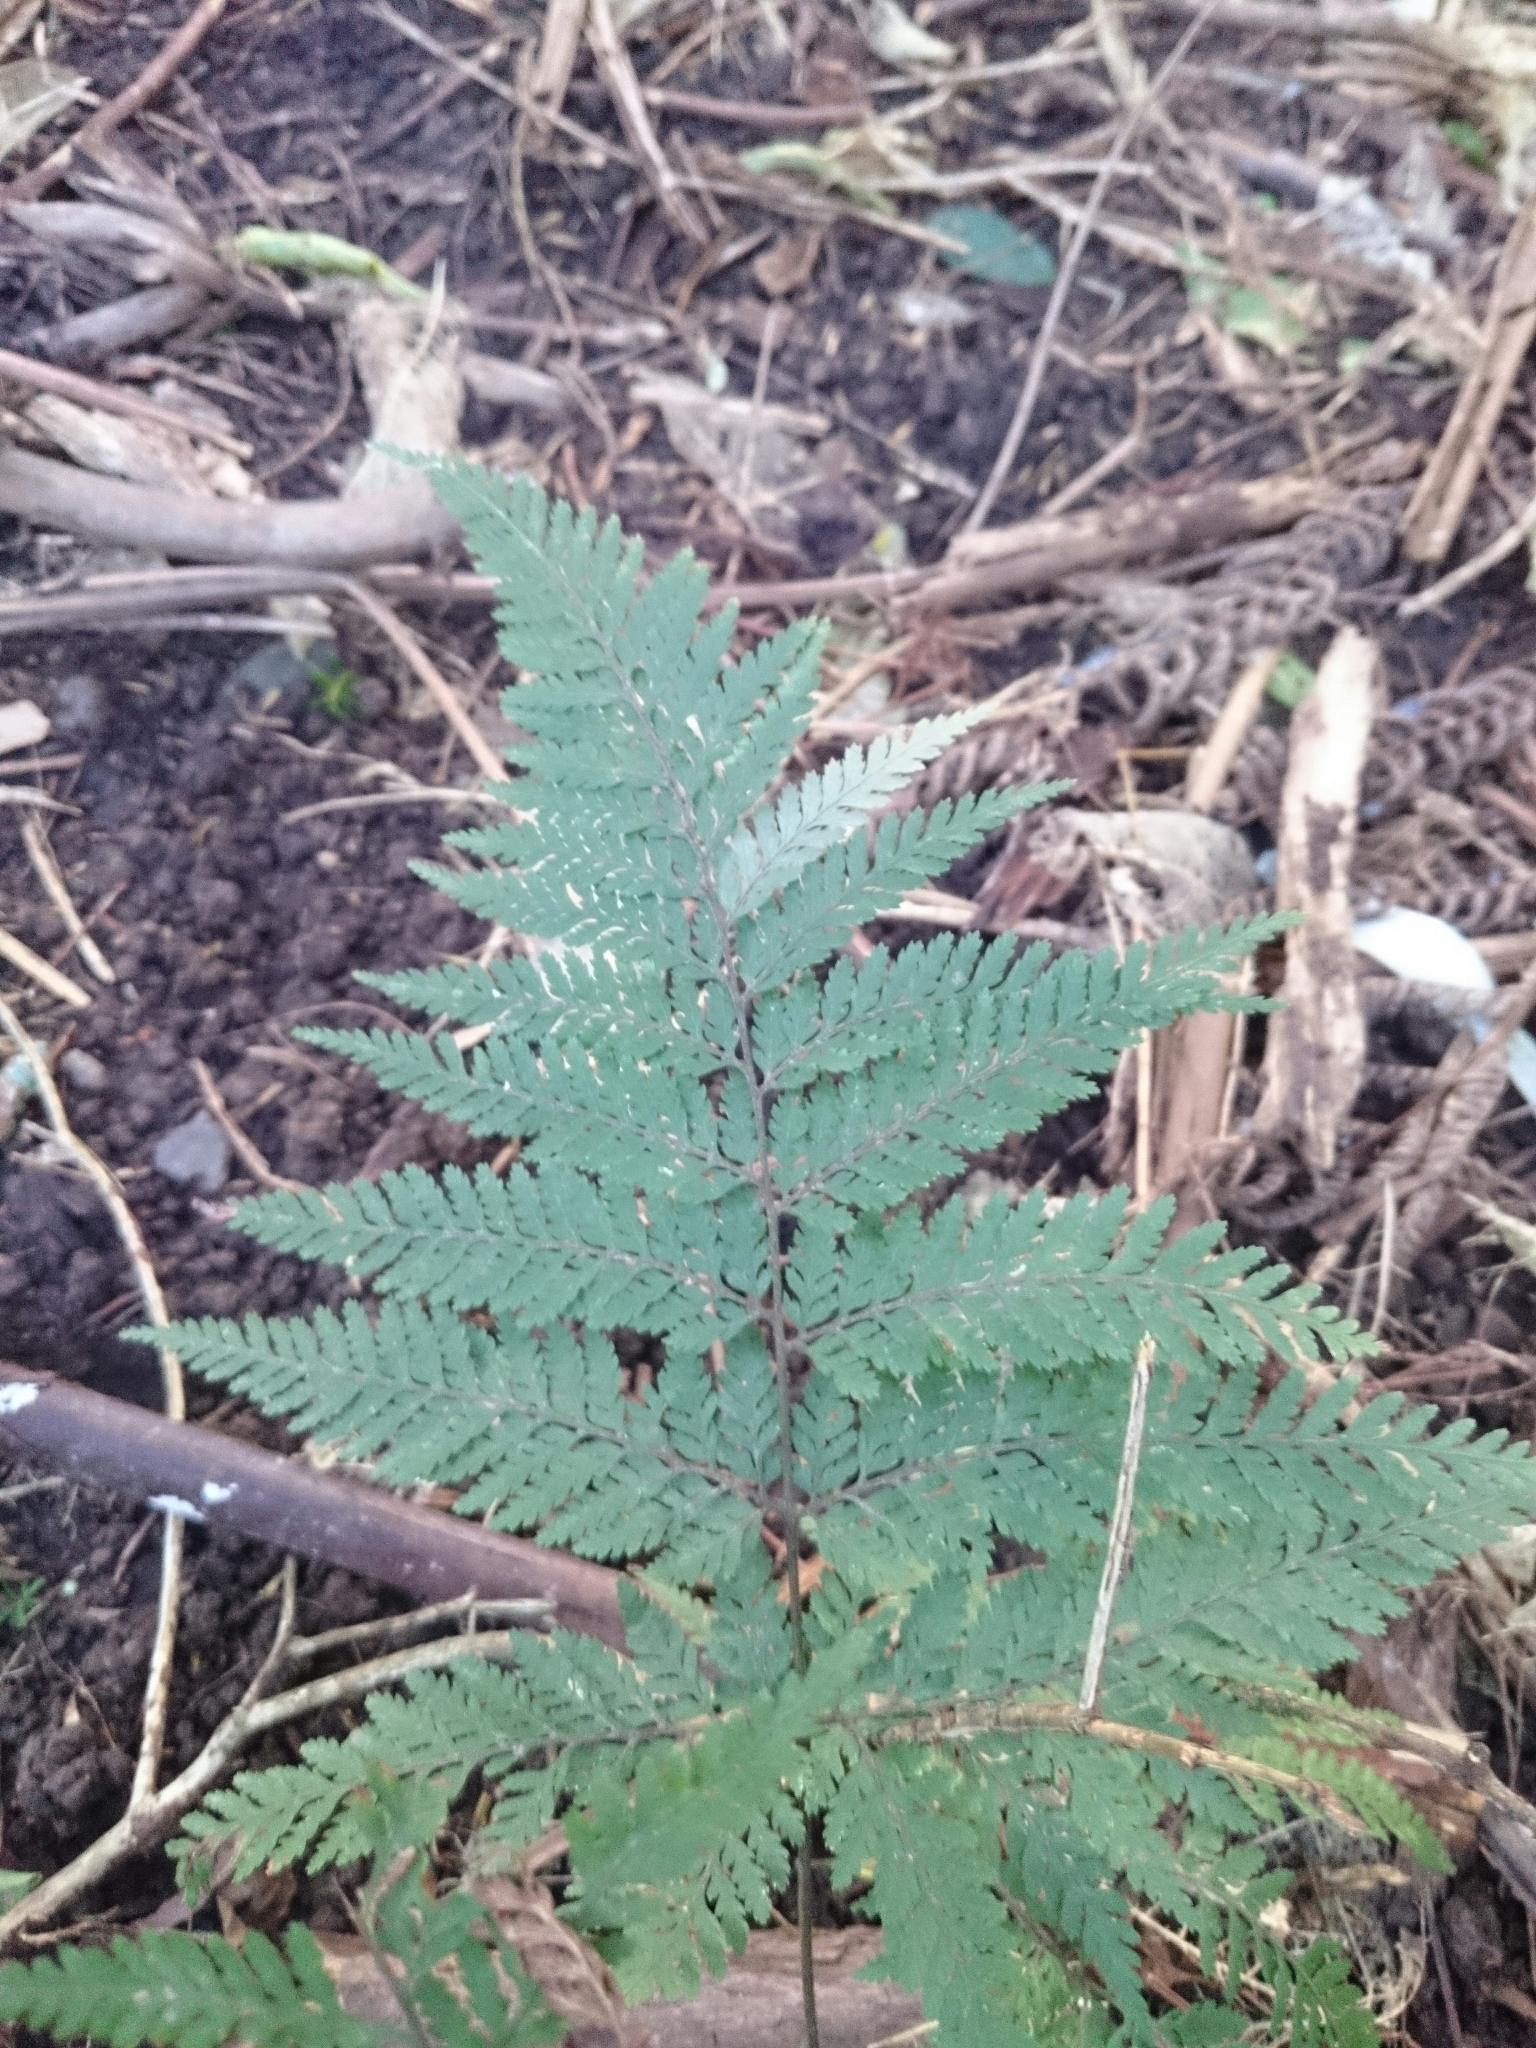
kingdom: Plantae
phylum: Tracheophyta
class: Polypodiopsida
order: Polypodiales
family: Dryopteridaceae
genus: Parapolystichum
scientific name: Parapolystichum microsorum
